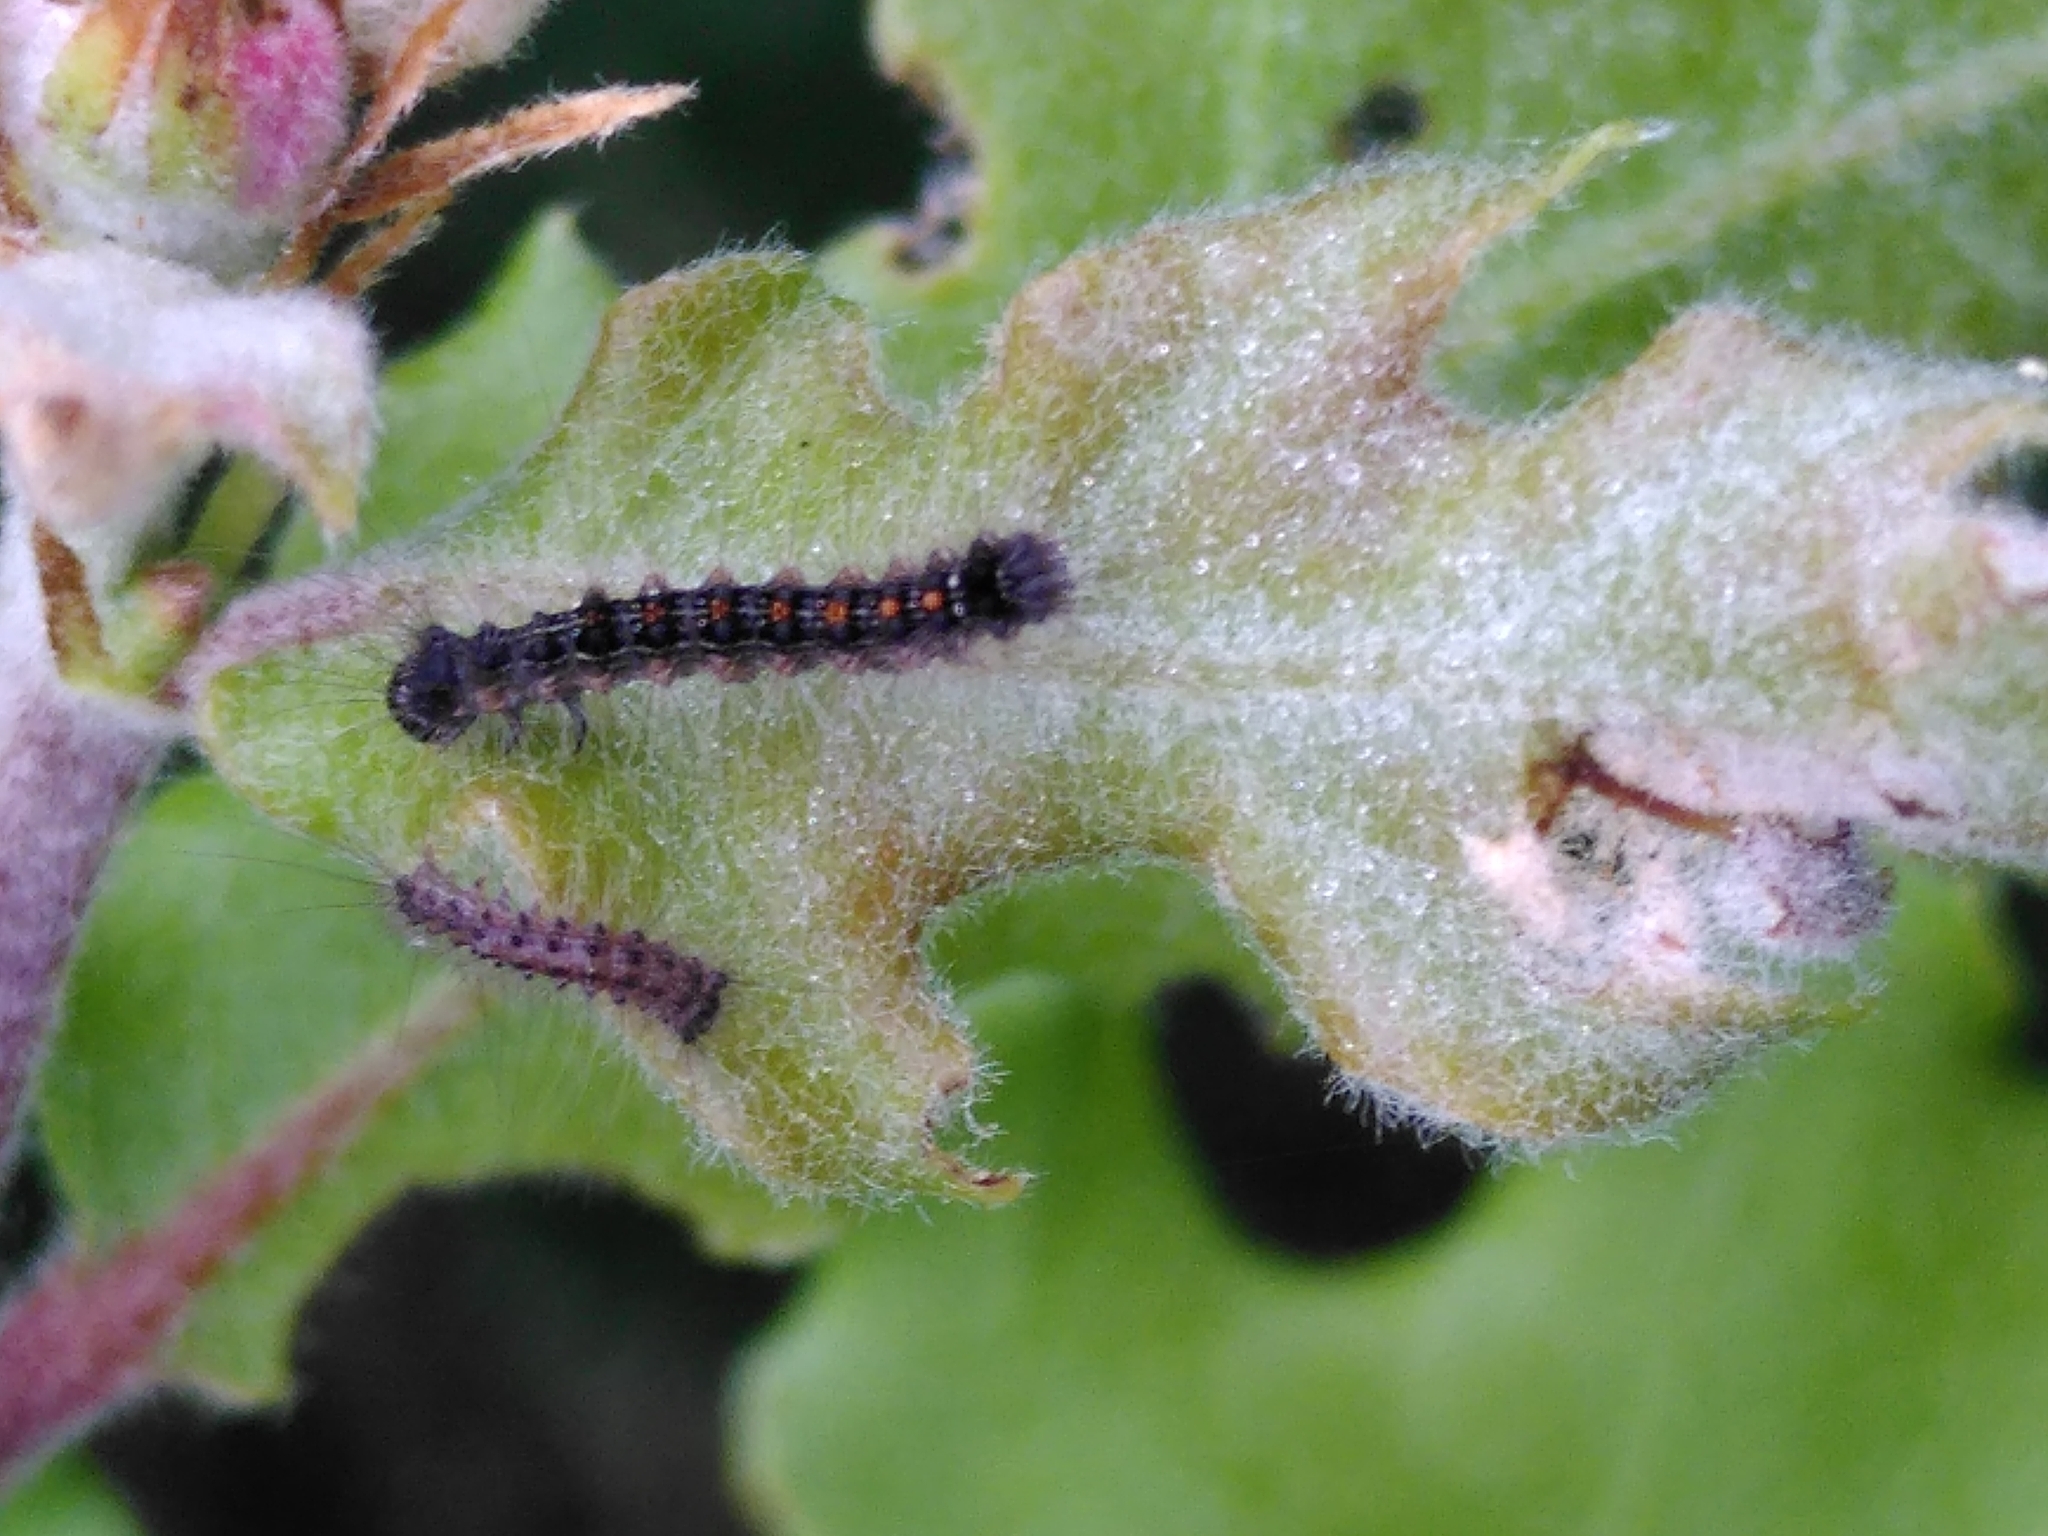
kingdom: Animalia
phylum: Arthropoda
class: Insecta
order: Lepidoptera
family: Erebidae
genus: Lymantria
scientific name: Lymantria dispar
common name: Gypsy moth
